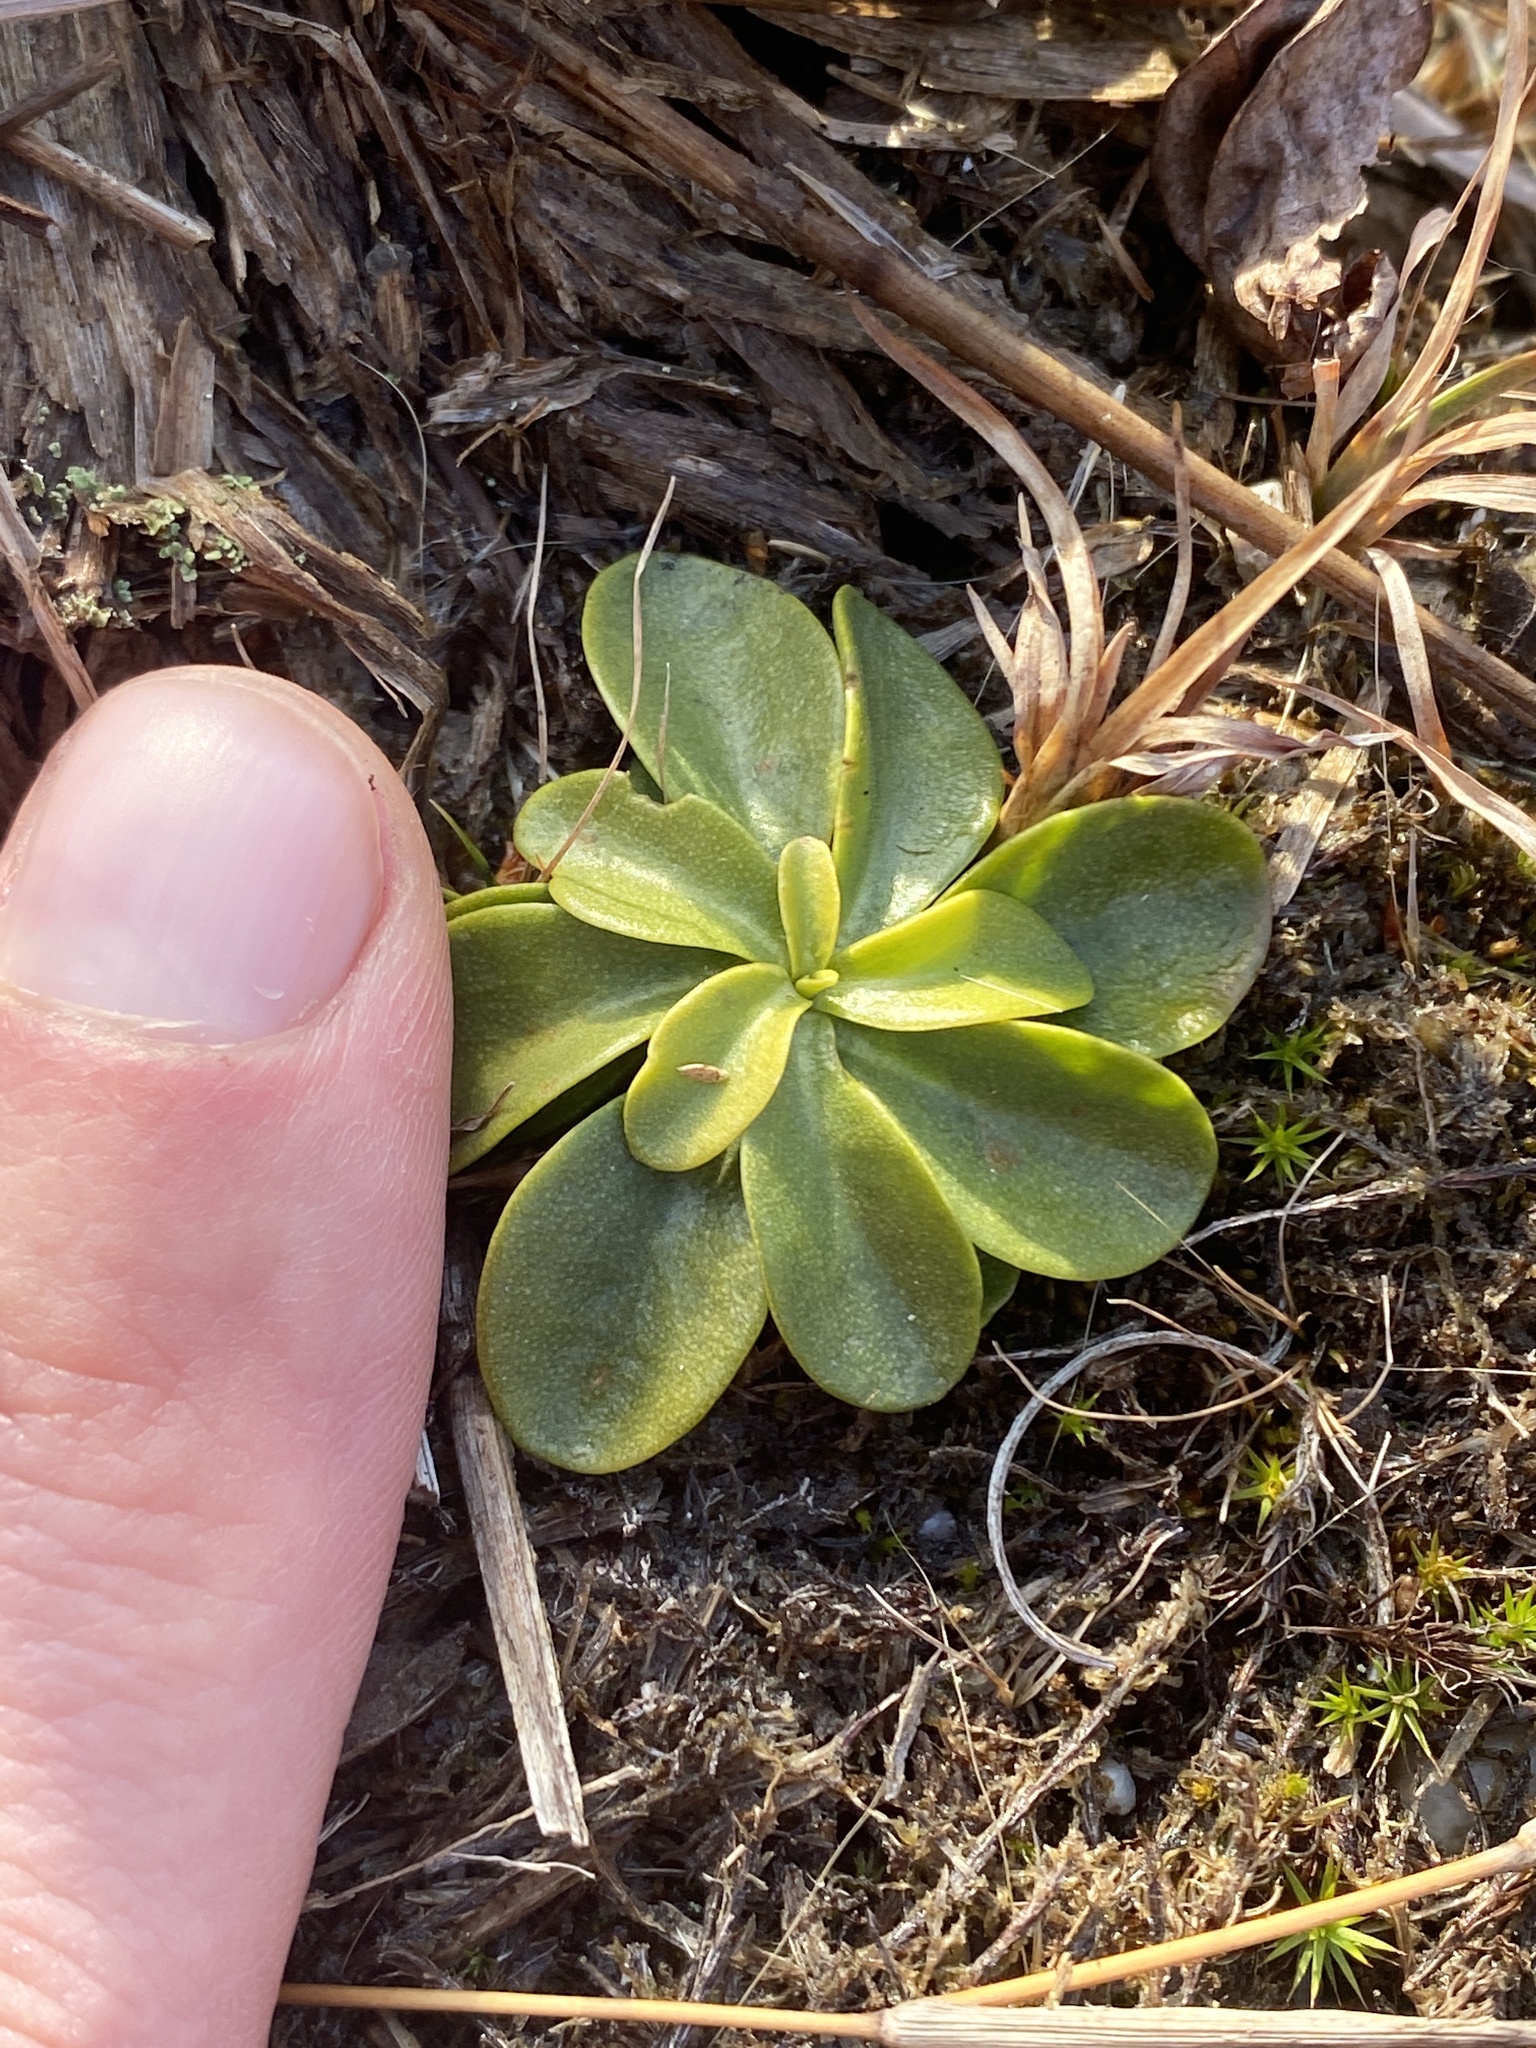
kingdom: Plantae
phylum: Tracheophyta
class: Magnoliopsida
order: Fabales
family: Polygalaceae
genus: Polygala
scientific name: Polygala lutea
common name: Orange milkwort
